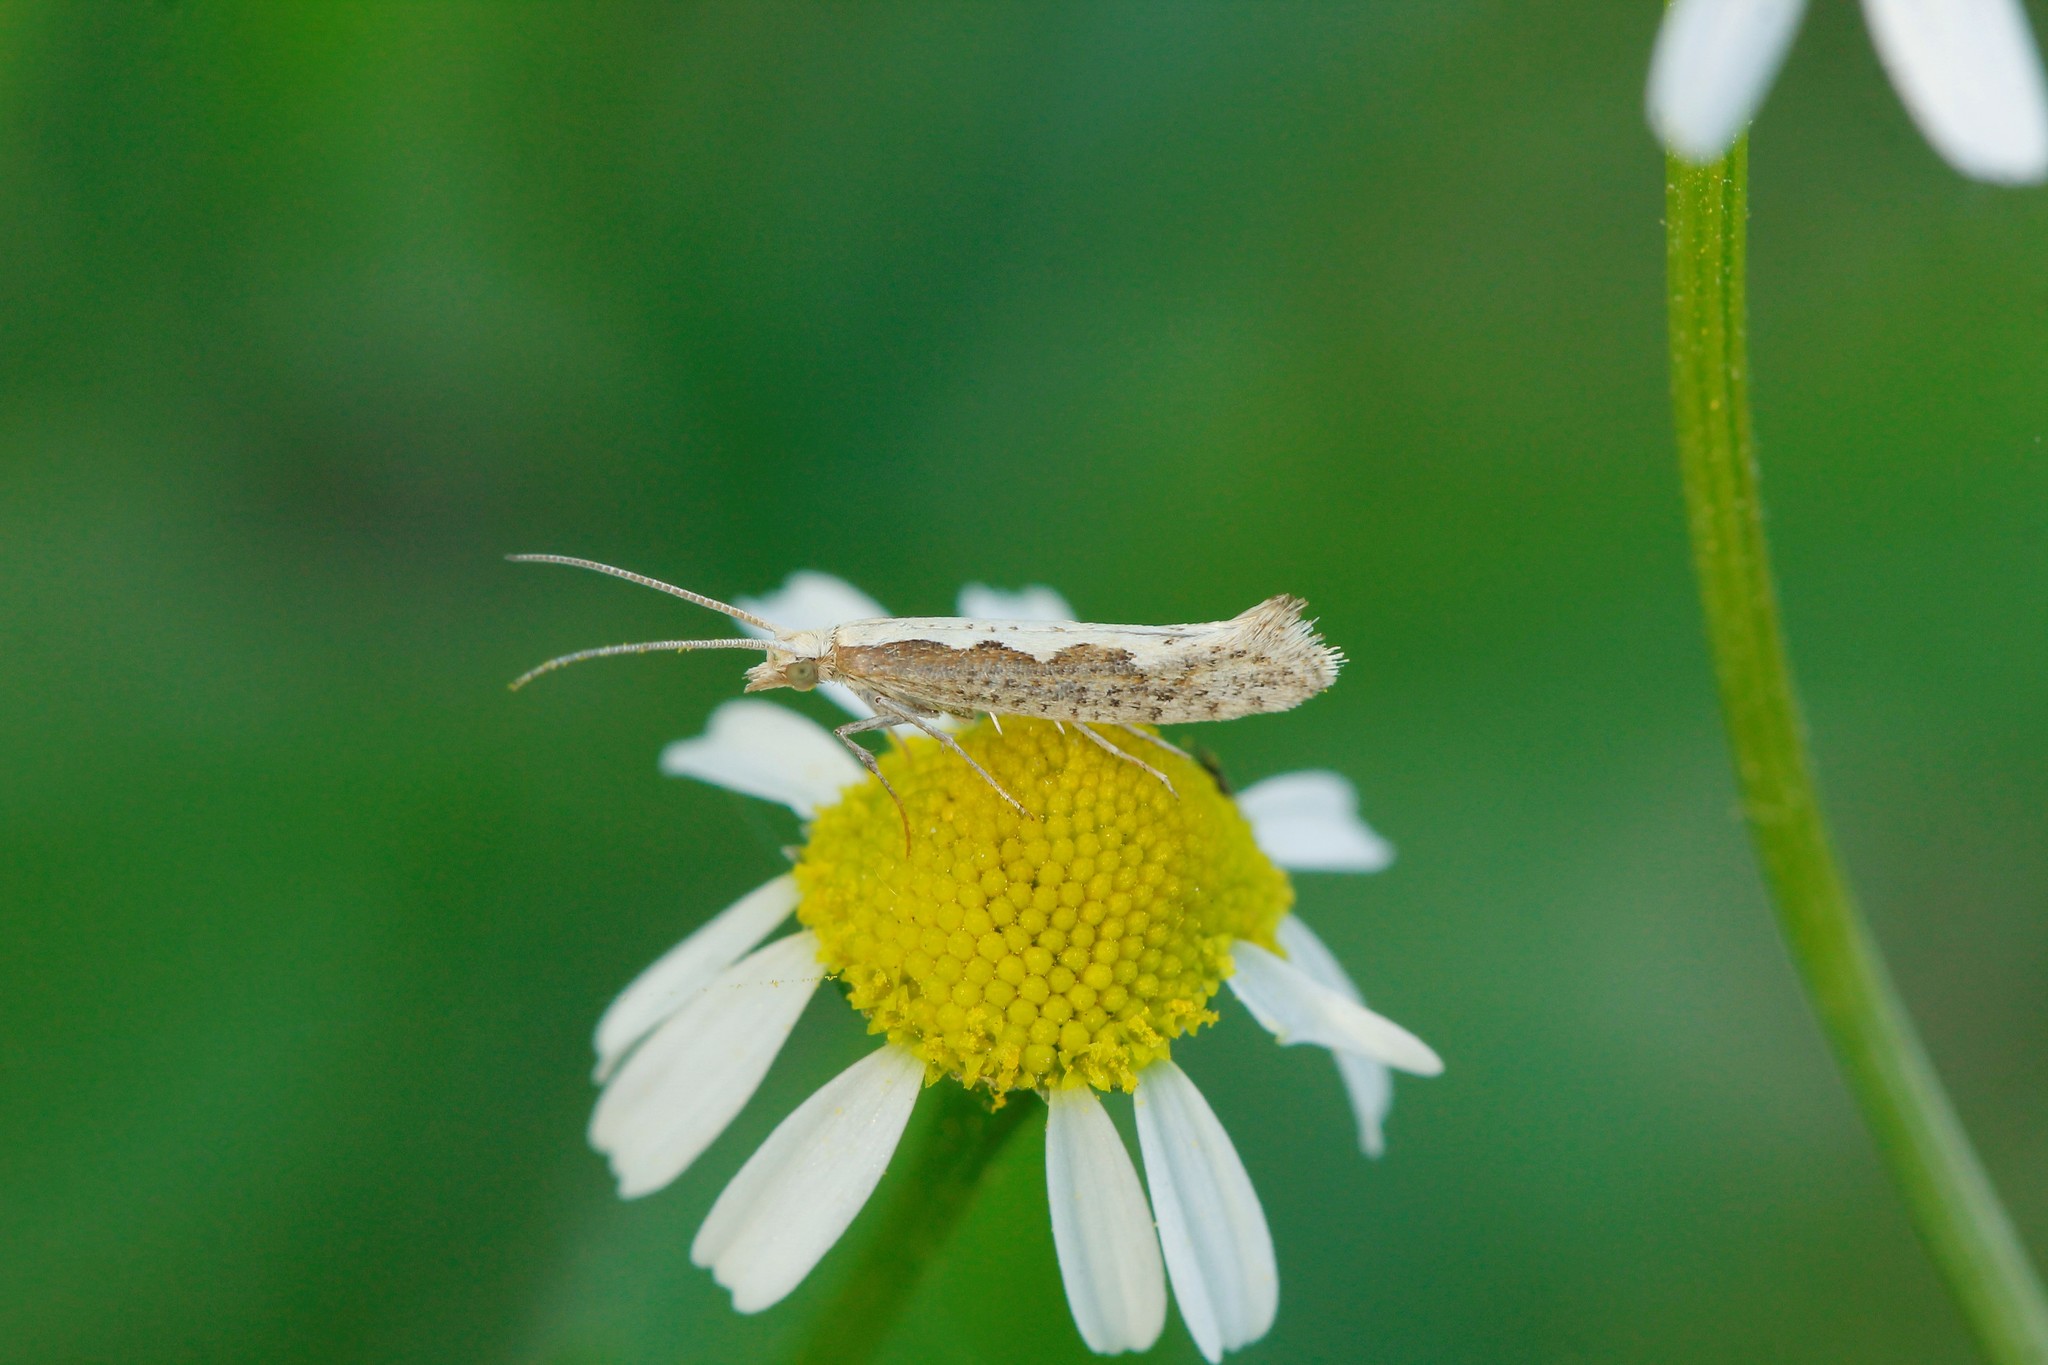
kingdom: Animalia
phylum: Arthropoda
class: Insecta
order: Lepidoptera
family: Plutellidae
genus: Plutella
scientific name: Plutella xylostella
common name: Diamond-back moth
